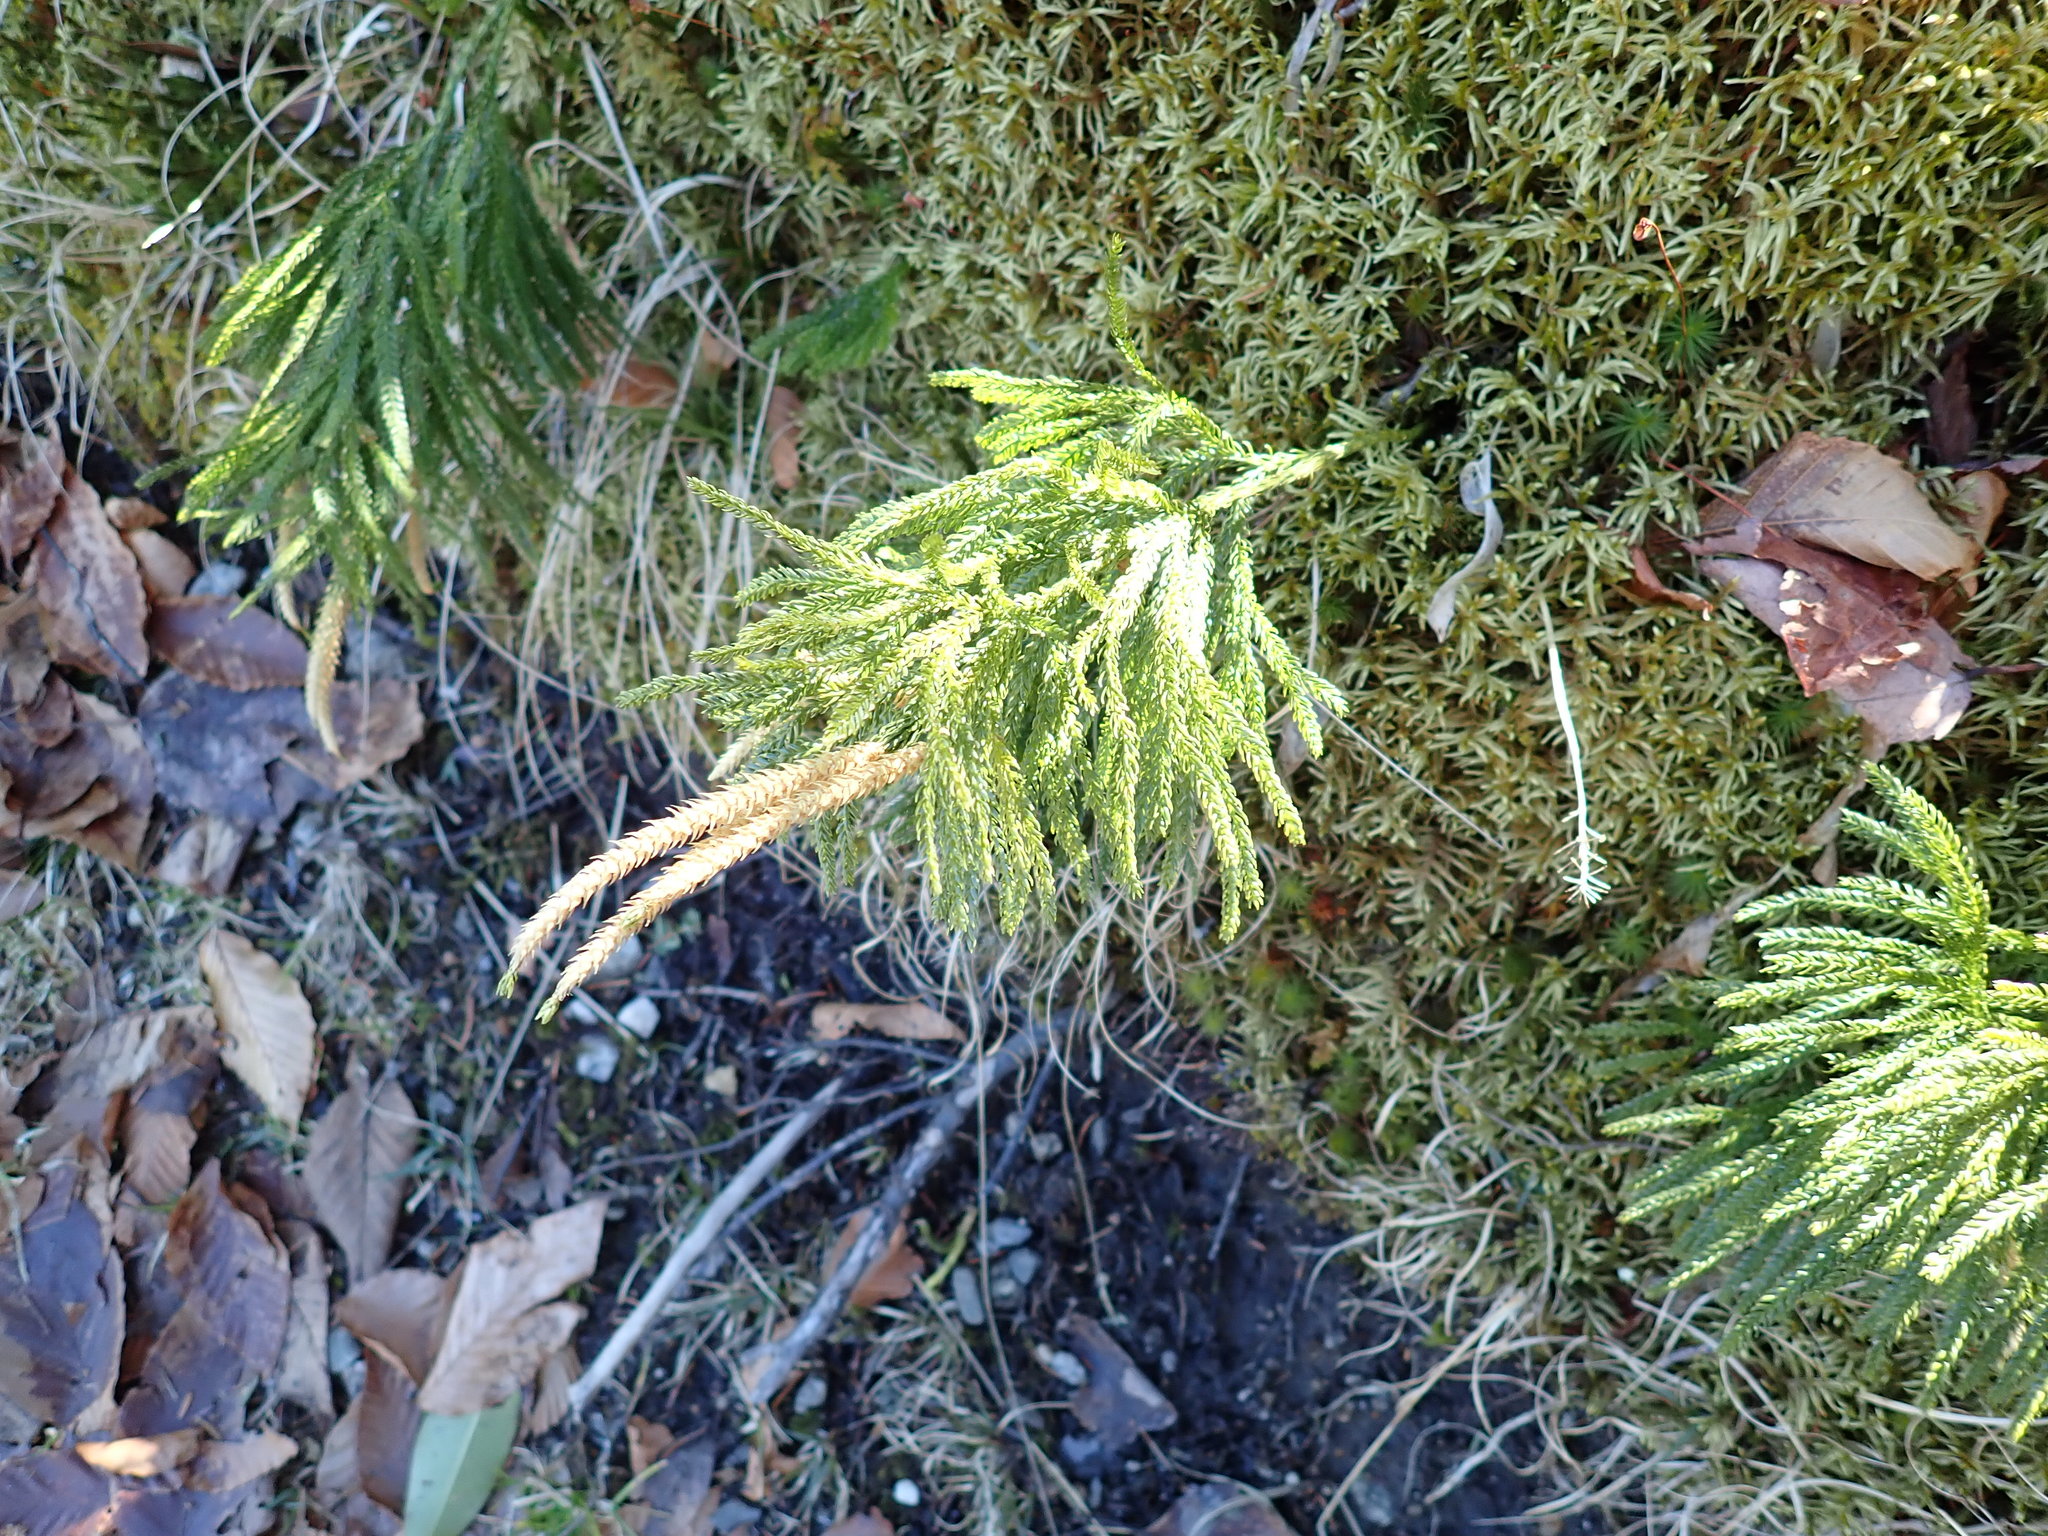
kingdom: Plantae
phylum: Tracheophyta
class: Lycopodiopsida
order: Lycopodiales
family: Lycopodiaceae
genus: Dendrolycopodium
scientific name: Dendrolycopodium obscurum
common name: Common ground-pine
